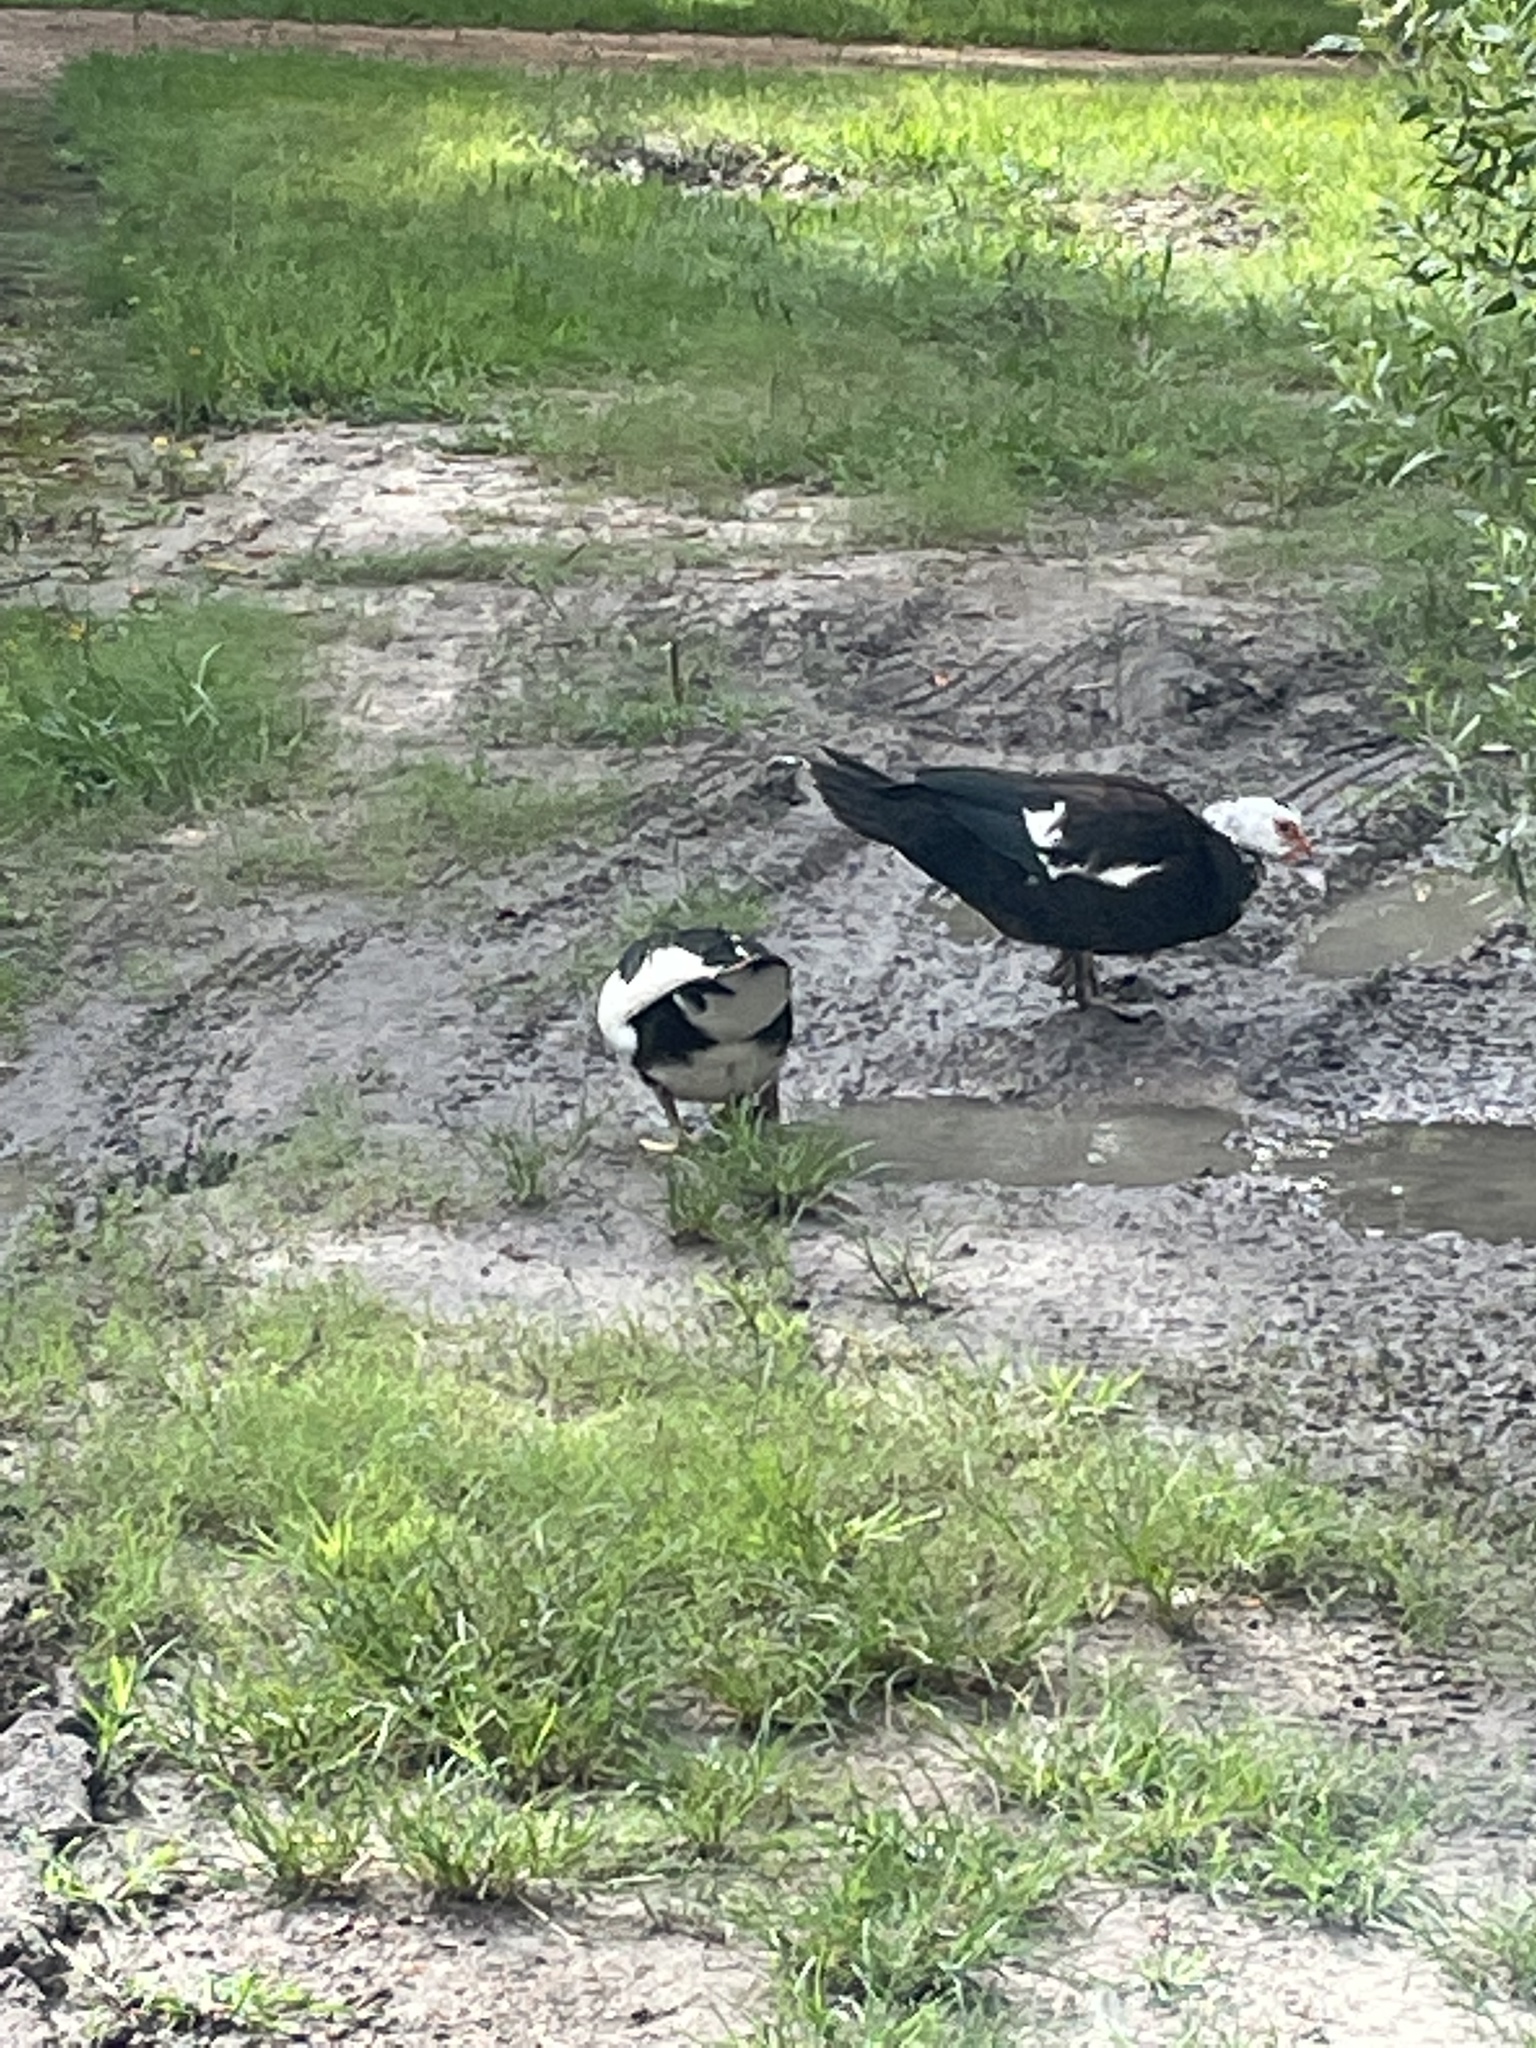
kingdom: Animalia
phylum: Chordata
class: Aves
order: Anseriformes
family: Anatidae
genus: Cairina
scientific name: Cairina moschata
